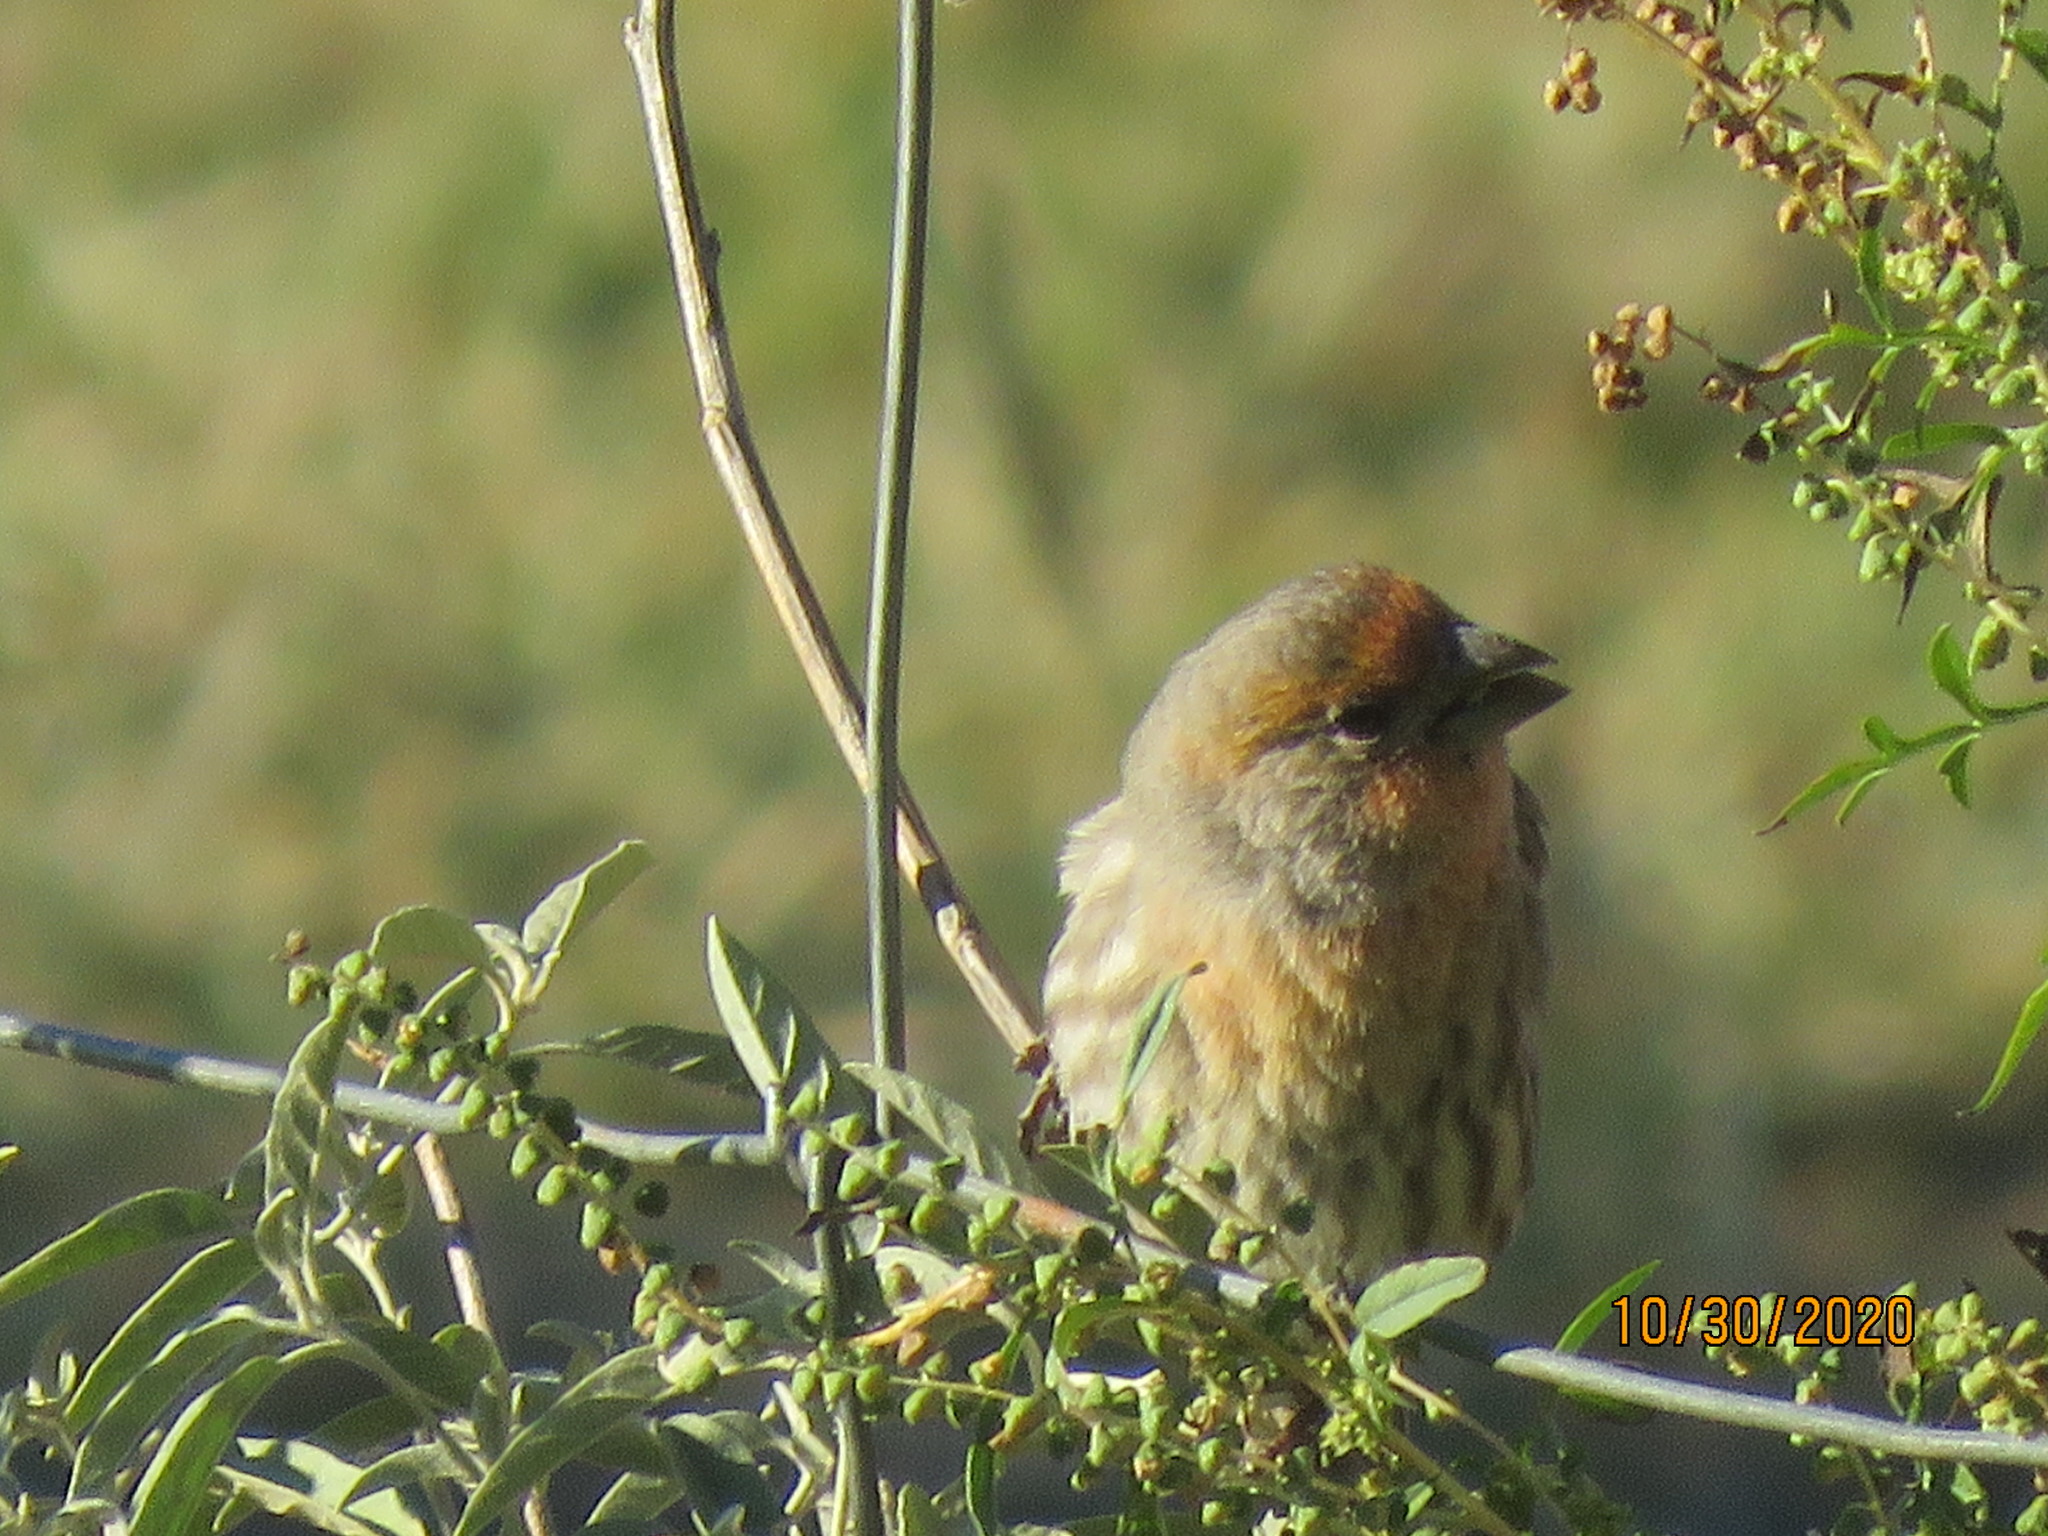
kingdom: Animalia
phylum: Chordata
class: Aves
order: Passeriformes
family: Fringillidae
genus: Haemorhous
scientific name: Haemorhous mexicanus
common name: House finch
